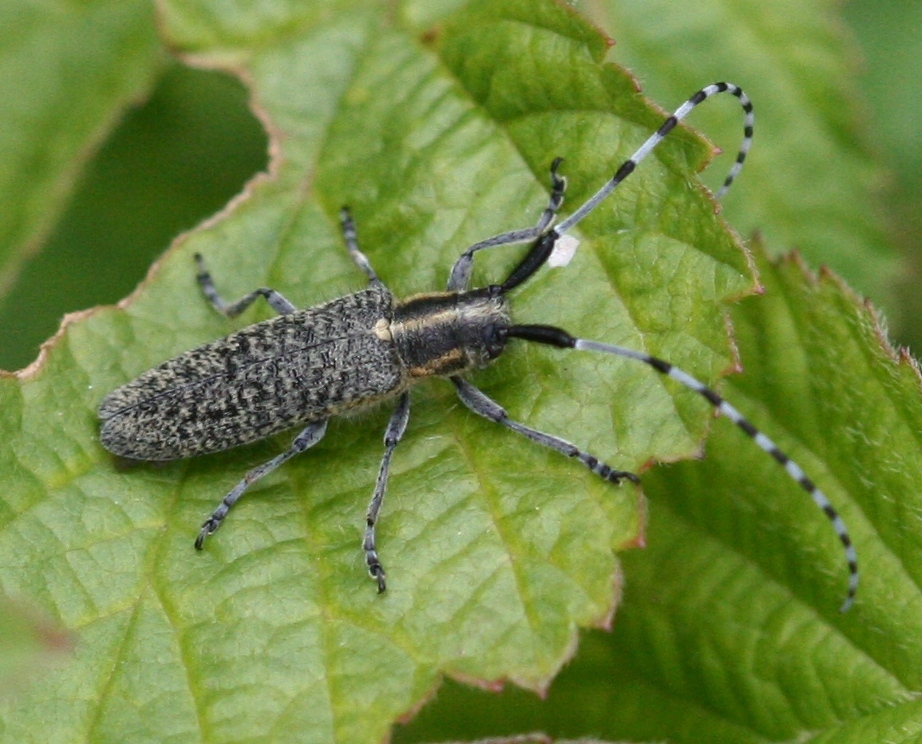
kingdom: Animalia
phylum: Arthropoda
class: Insecta
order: Coleoptera
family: Cerambycidae
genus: Agapanthia
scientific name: Agapanthia villosoviridescens
